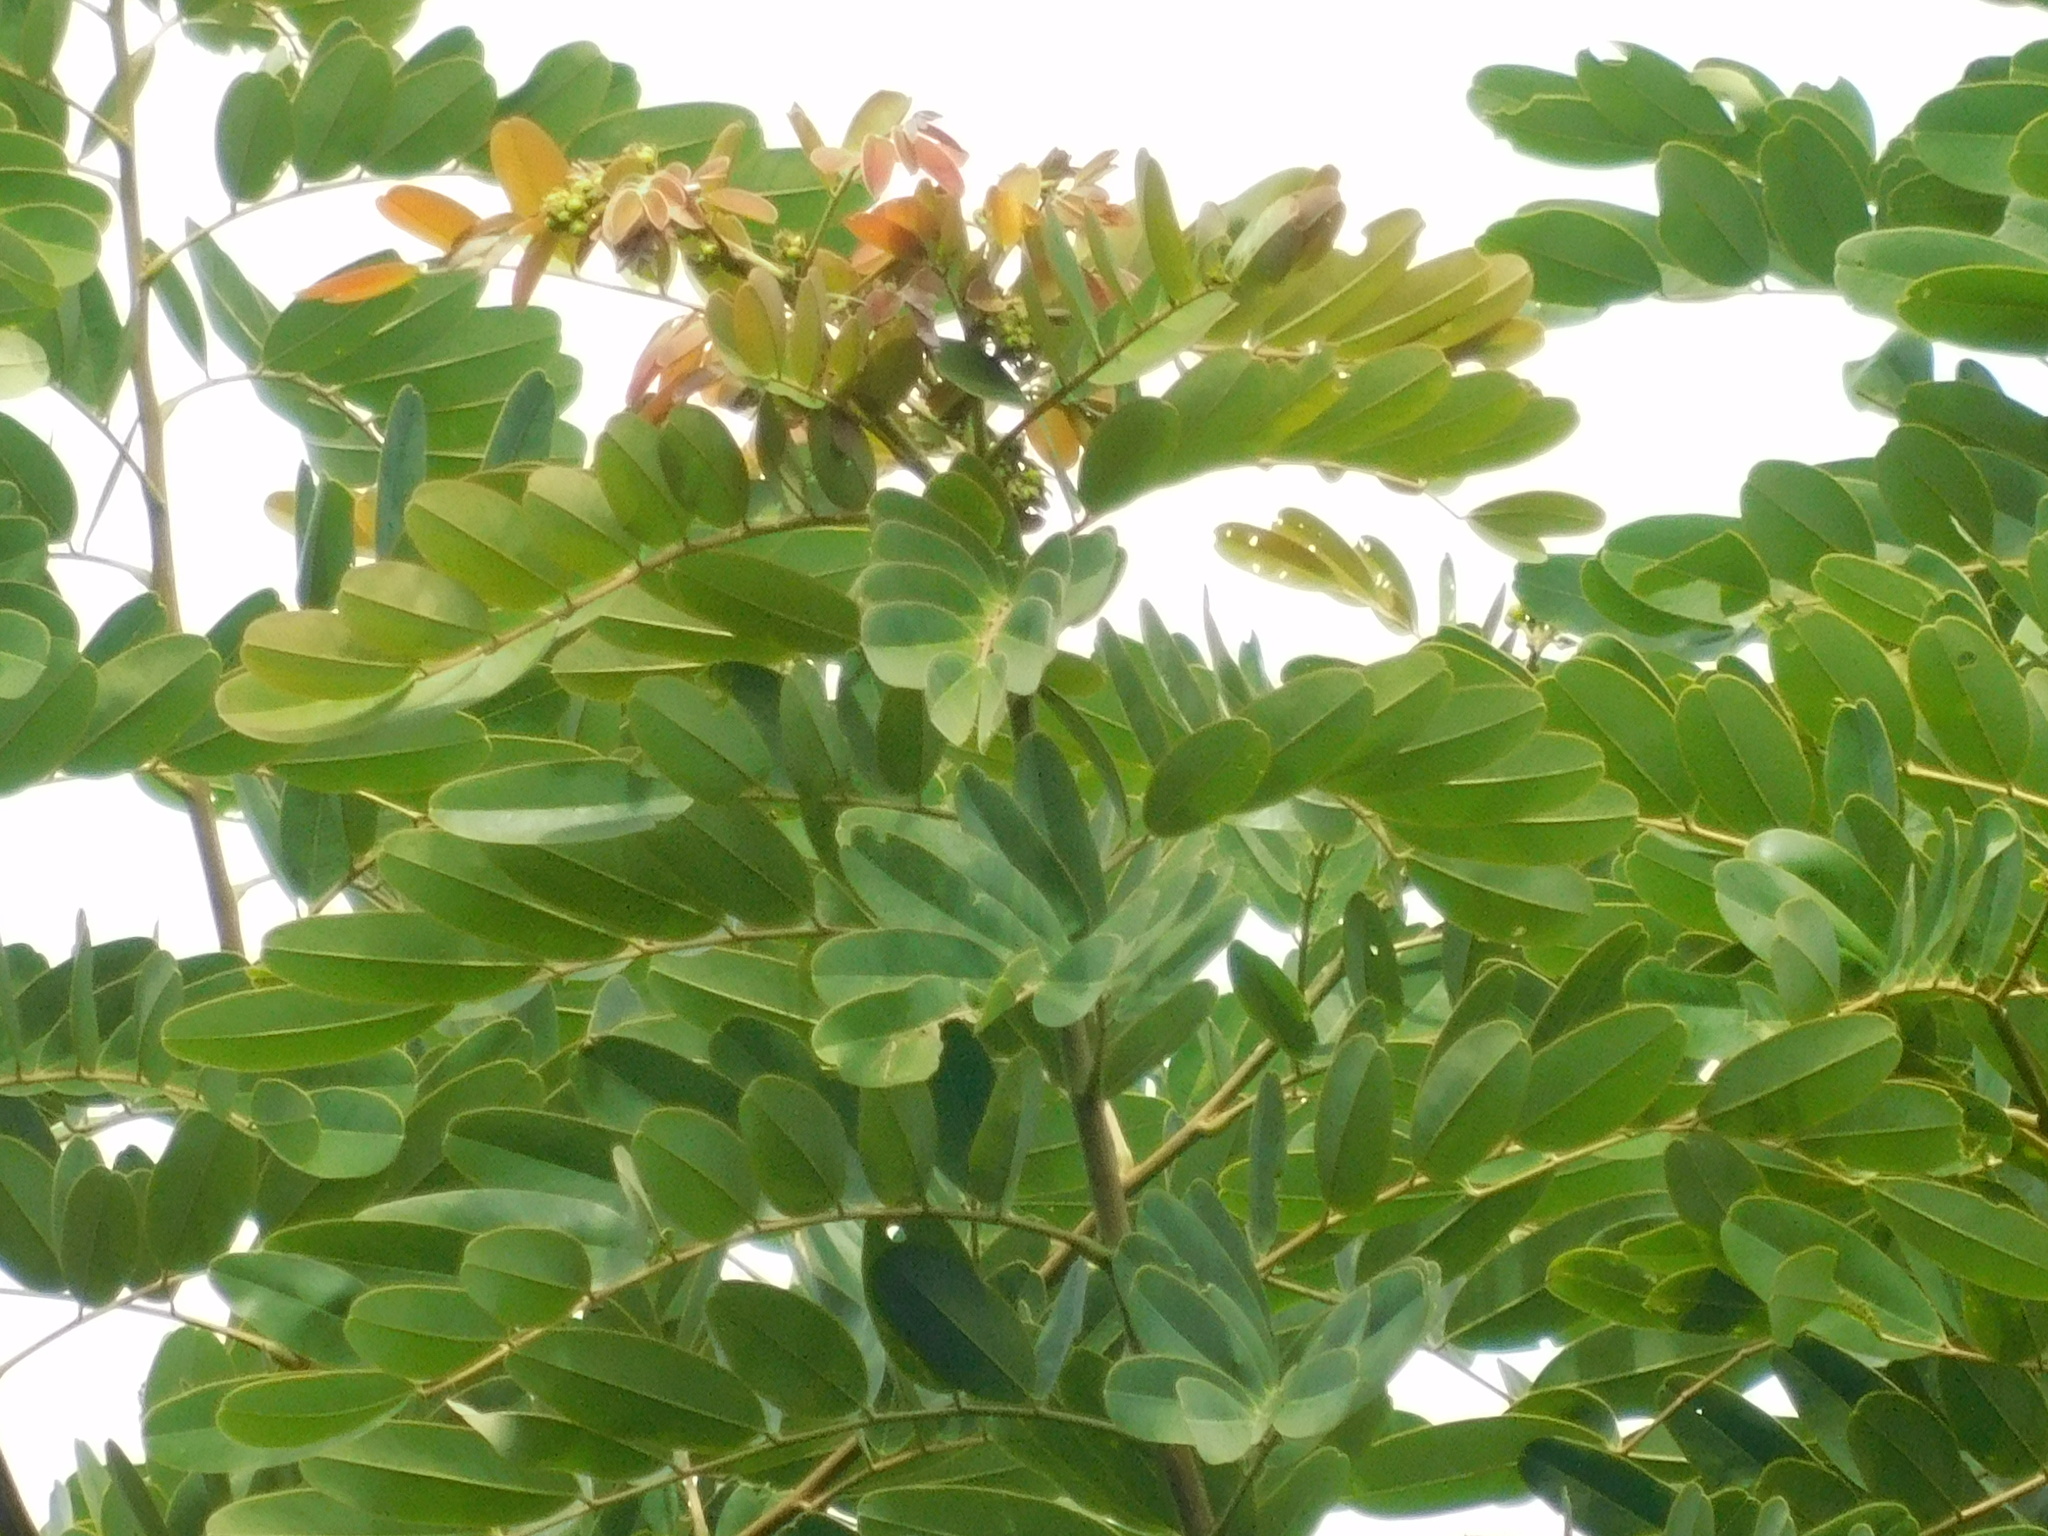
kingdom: Plantae
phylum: Tracheophyta
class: Magnoliopsida
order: Fabales
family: Fabaceae
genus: Senna
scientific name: Senna siamea
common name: Siamese cassia
